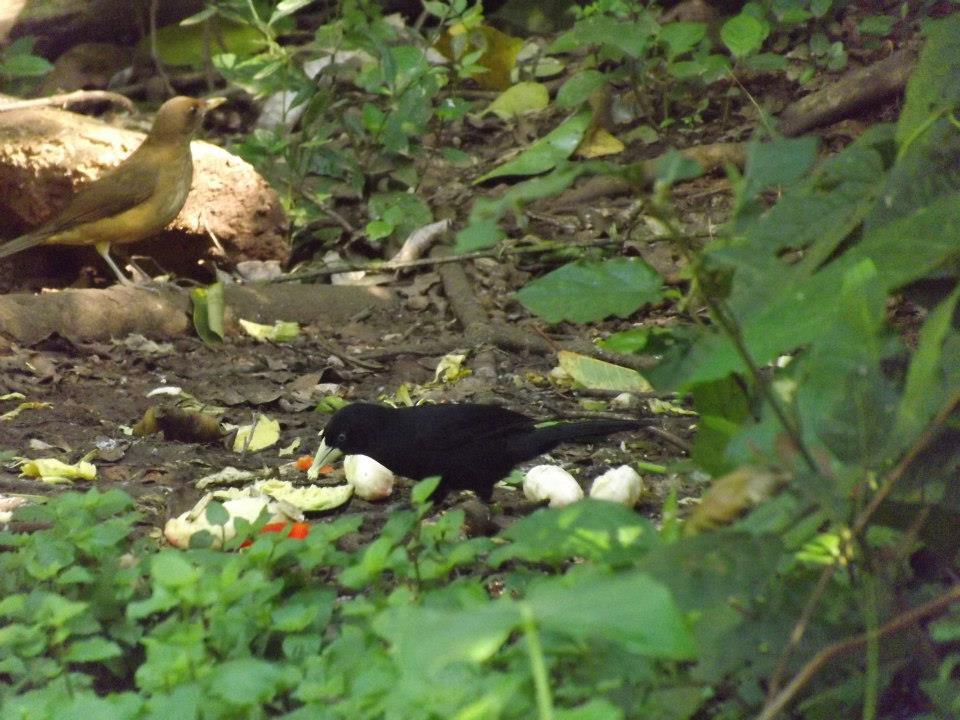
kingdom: Animalia
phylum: Chordata
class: Aves
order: Passeriformes
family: Icteridae
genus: Amblycercus
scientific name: Amblycercus holosericeus
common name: Yellow-billed cacique
